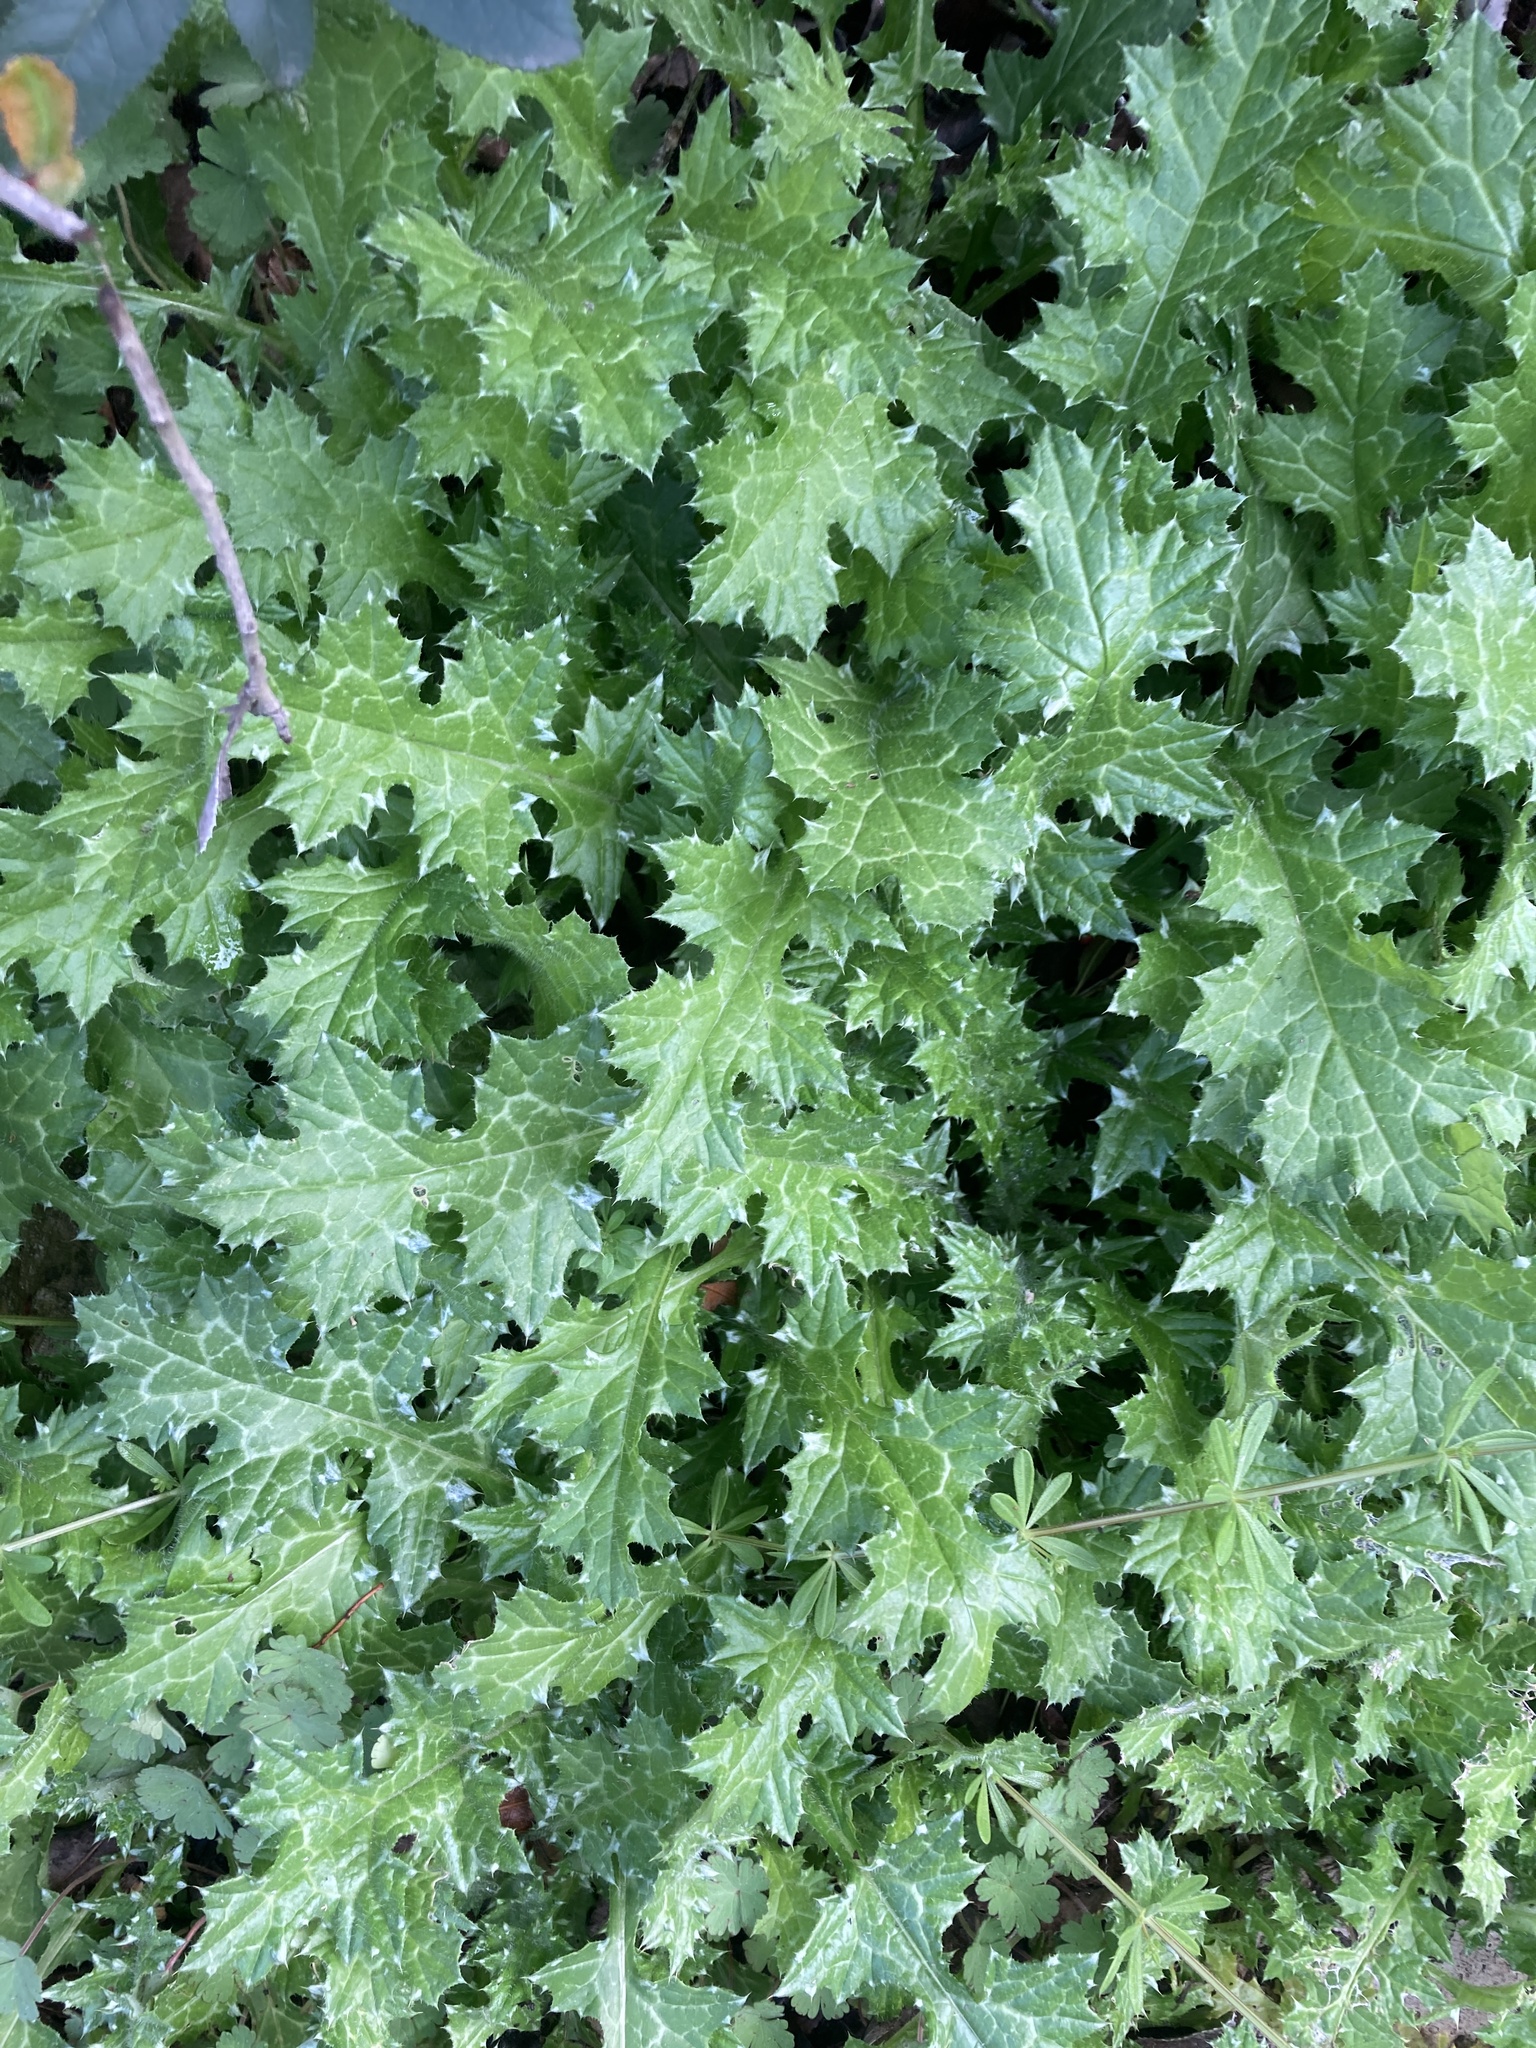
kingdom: Plantae
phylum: Tracheophyta
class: Magnoliopsida
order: Asterales
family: Asteraceae
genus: Carduus
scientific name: Carduus pycnocephalus
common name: Plymouth thistle
